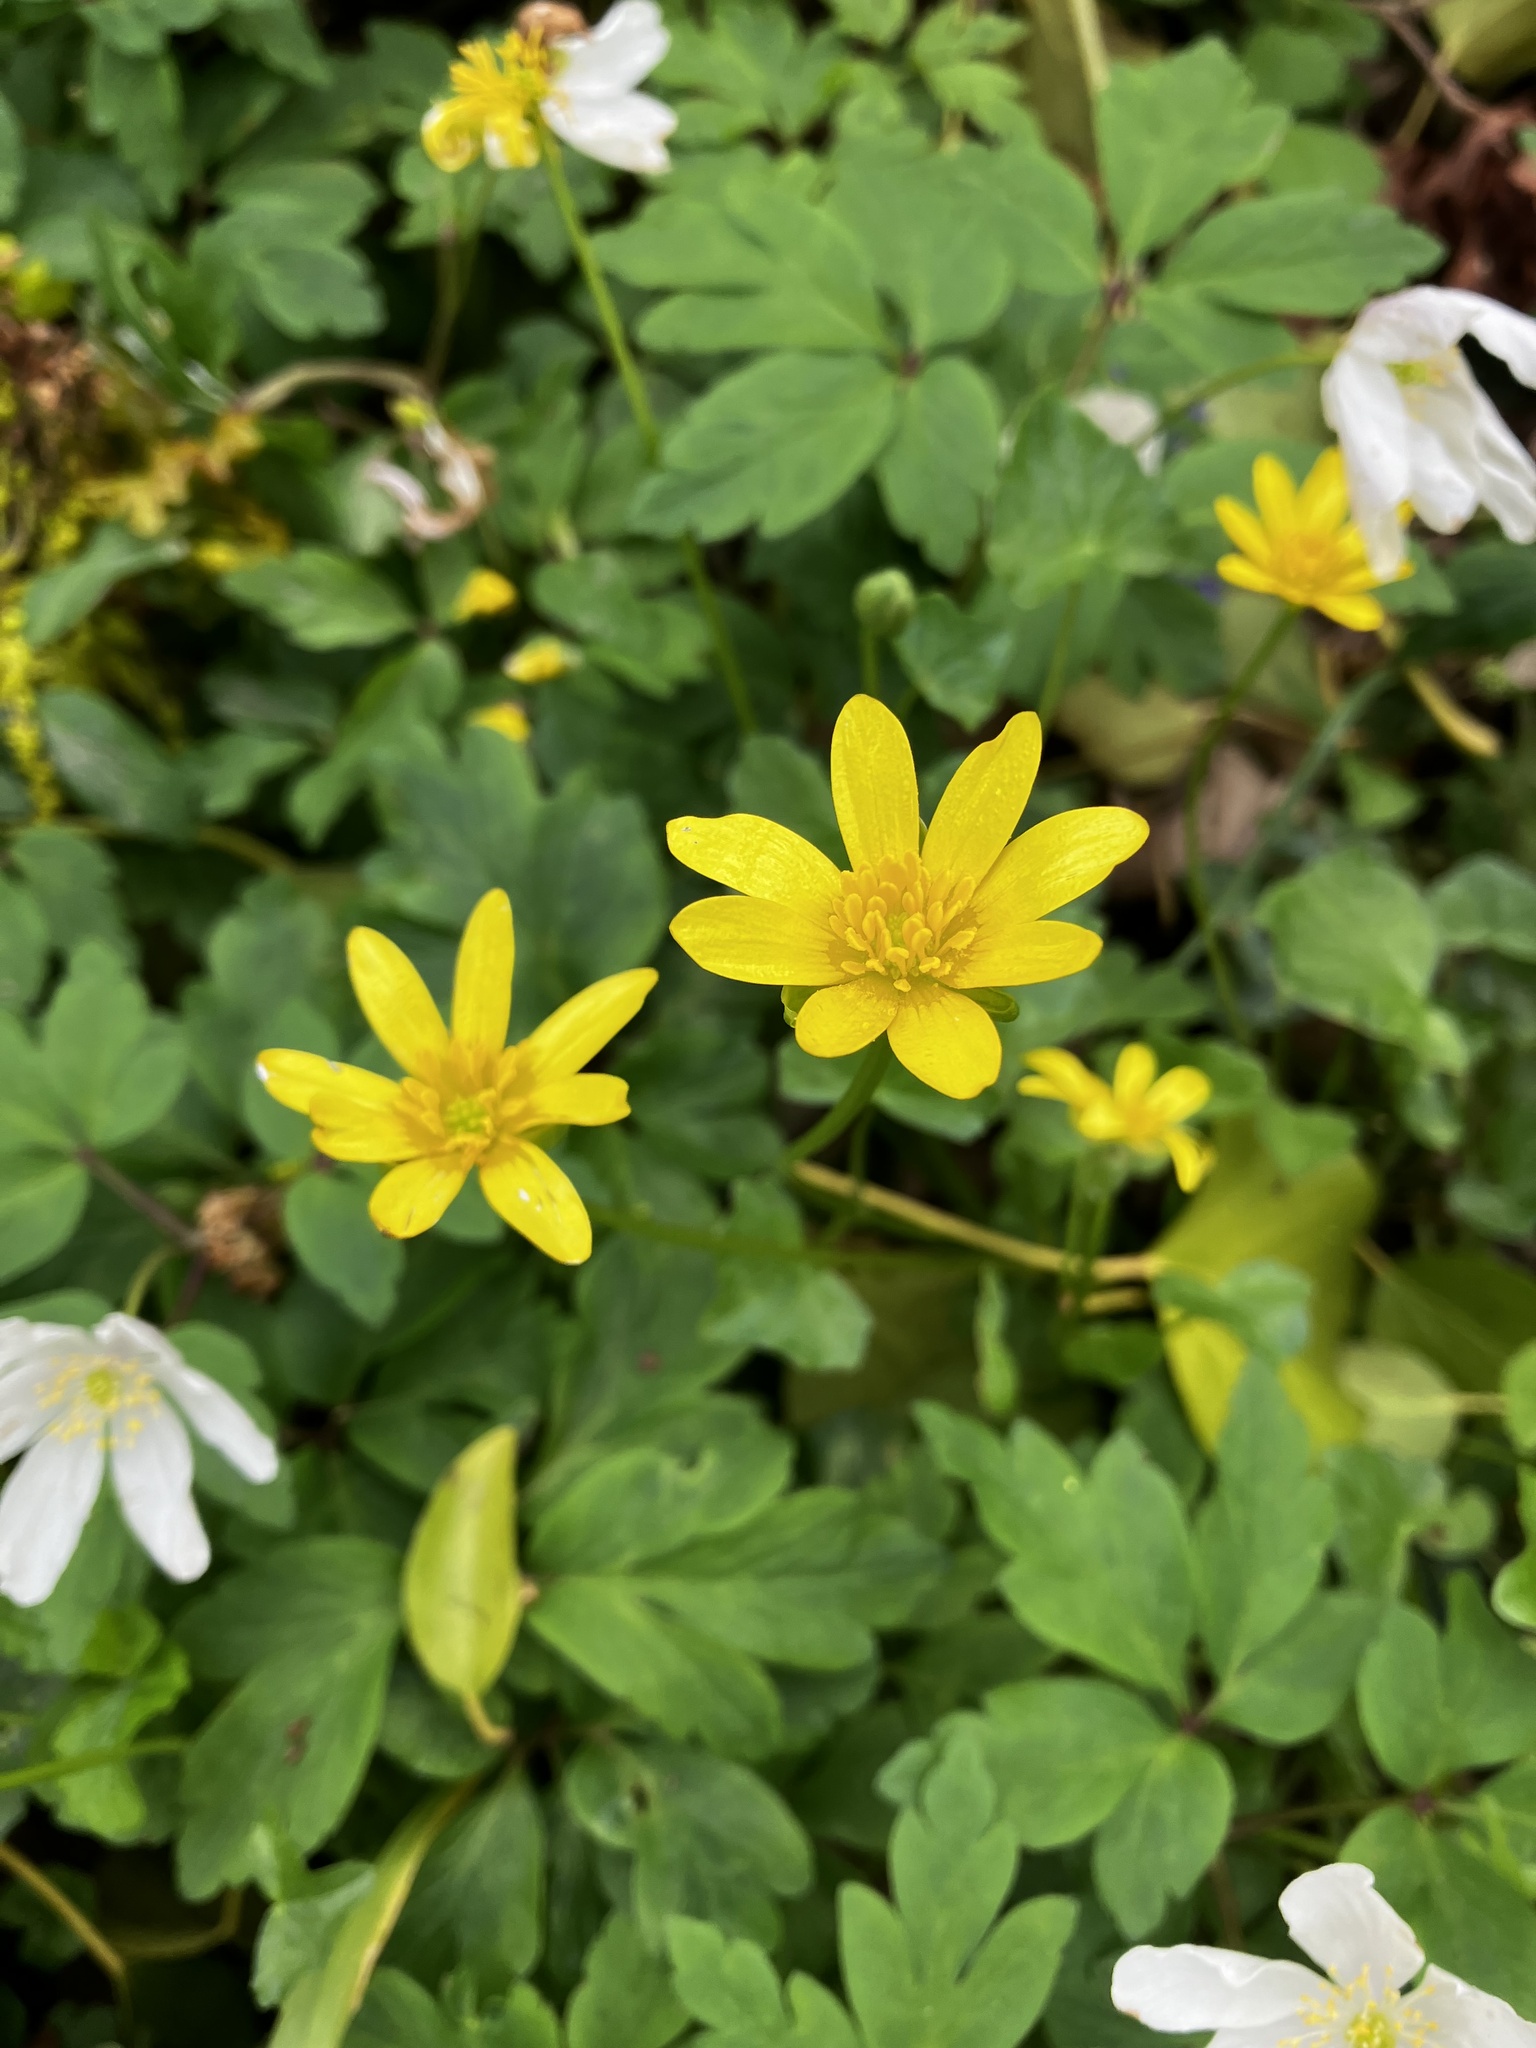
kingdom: Plantae
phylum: Tracheophyta
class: Magnoliopsida
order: Ranunculales
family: Ranunculaceae
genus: Ficaria
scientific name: Ficaria verna
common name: Lesser celandine
